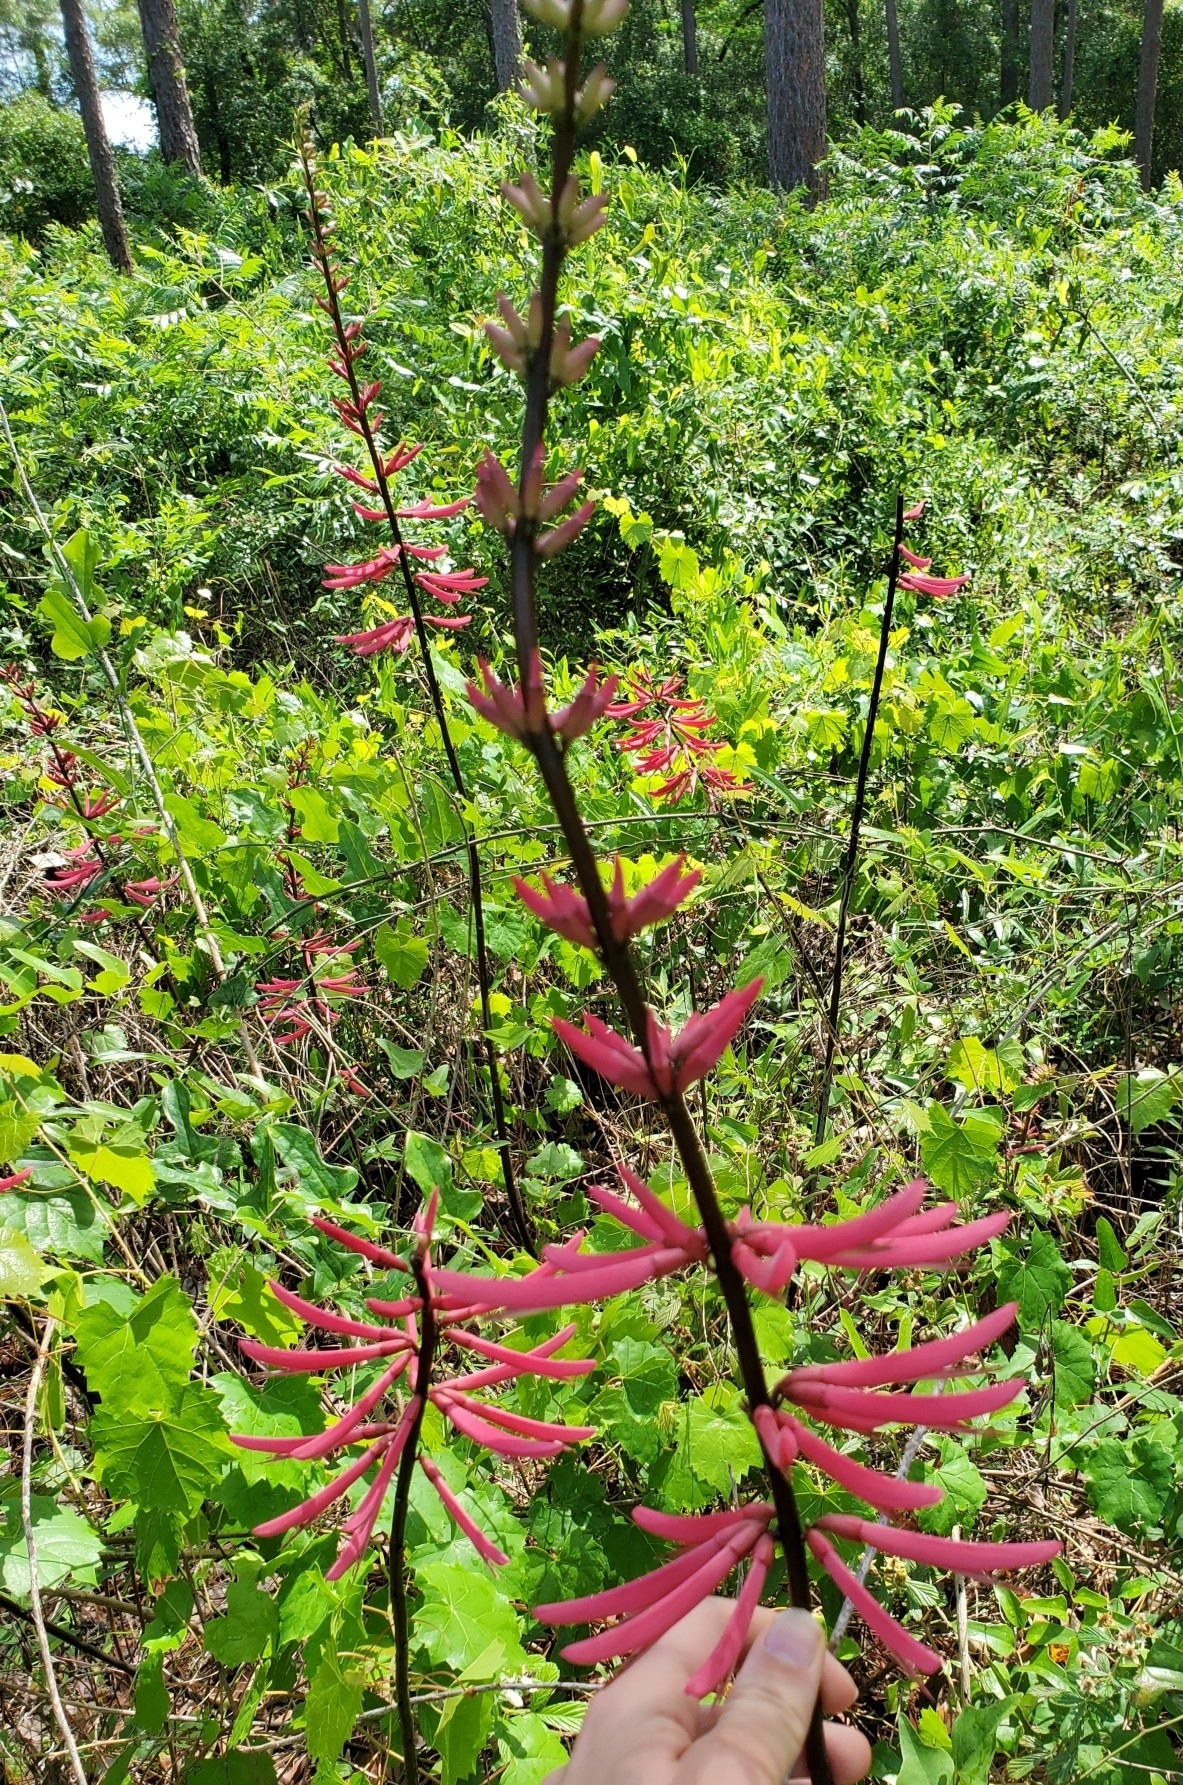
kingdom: Plantae
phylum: Tracheophyta
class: Magnoliopsida
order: Fabales
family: Fabaceae
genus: Erythrina
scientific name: Erythrina herbacea
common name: Coral-bean
